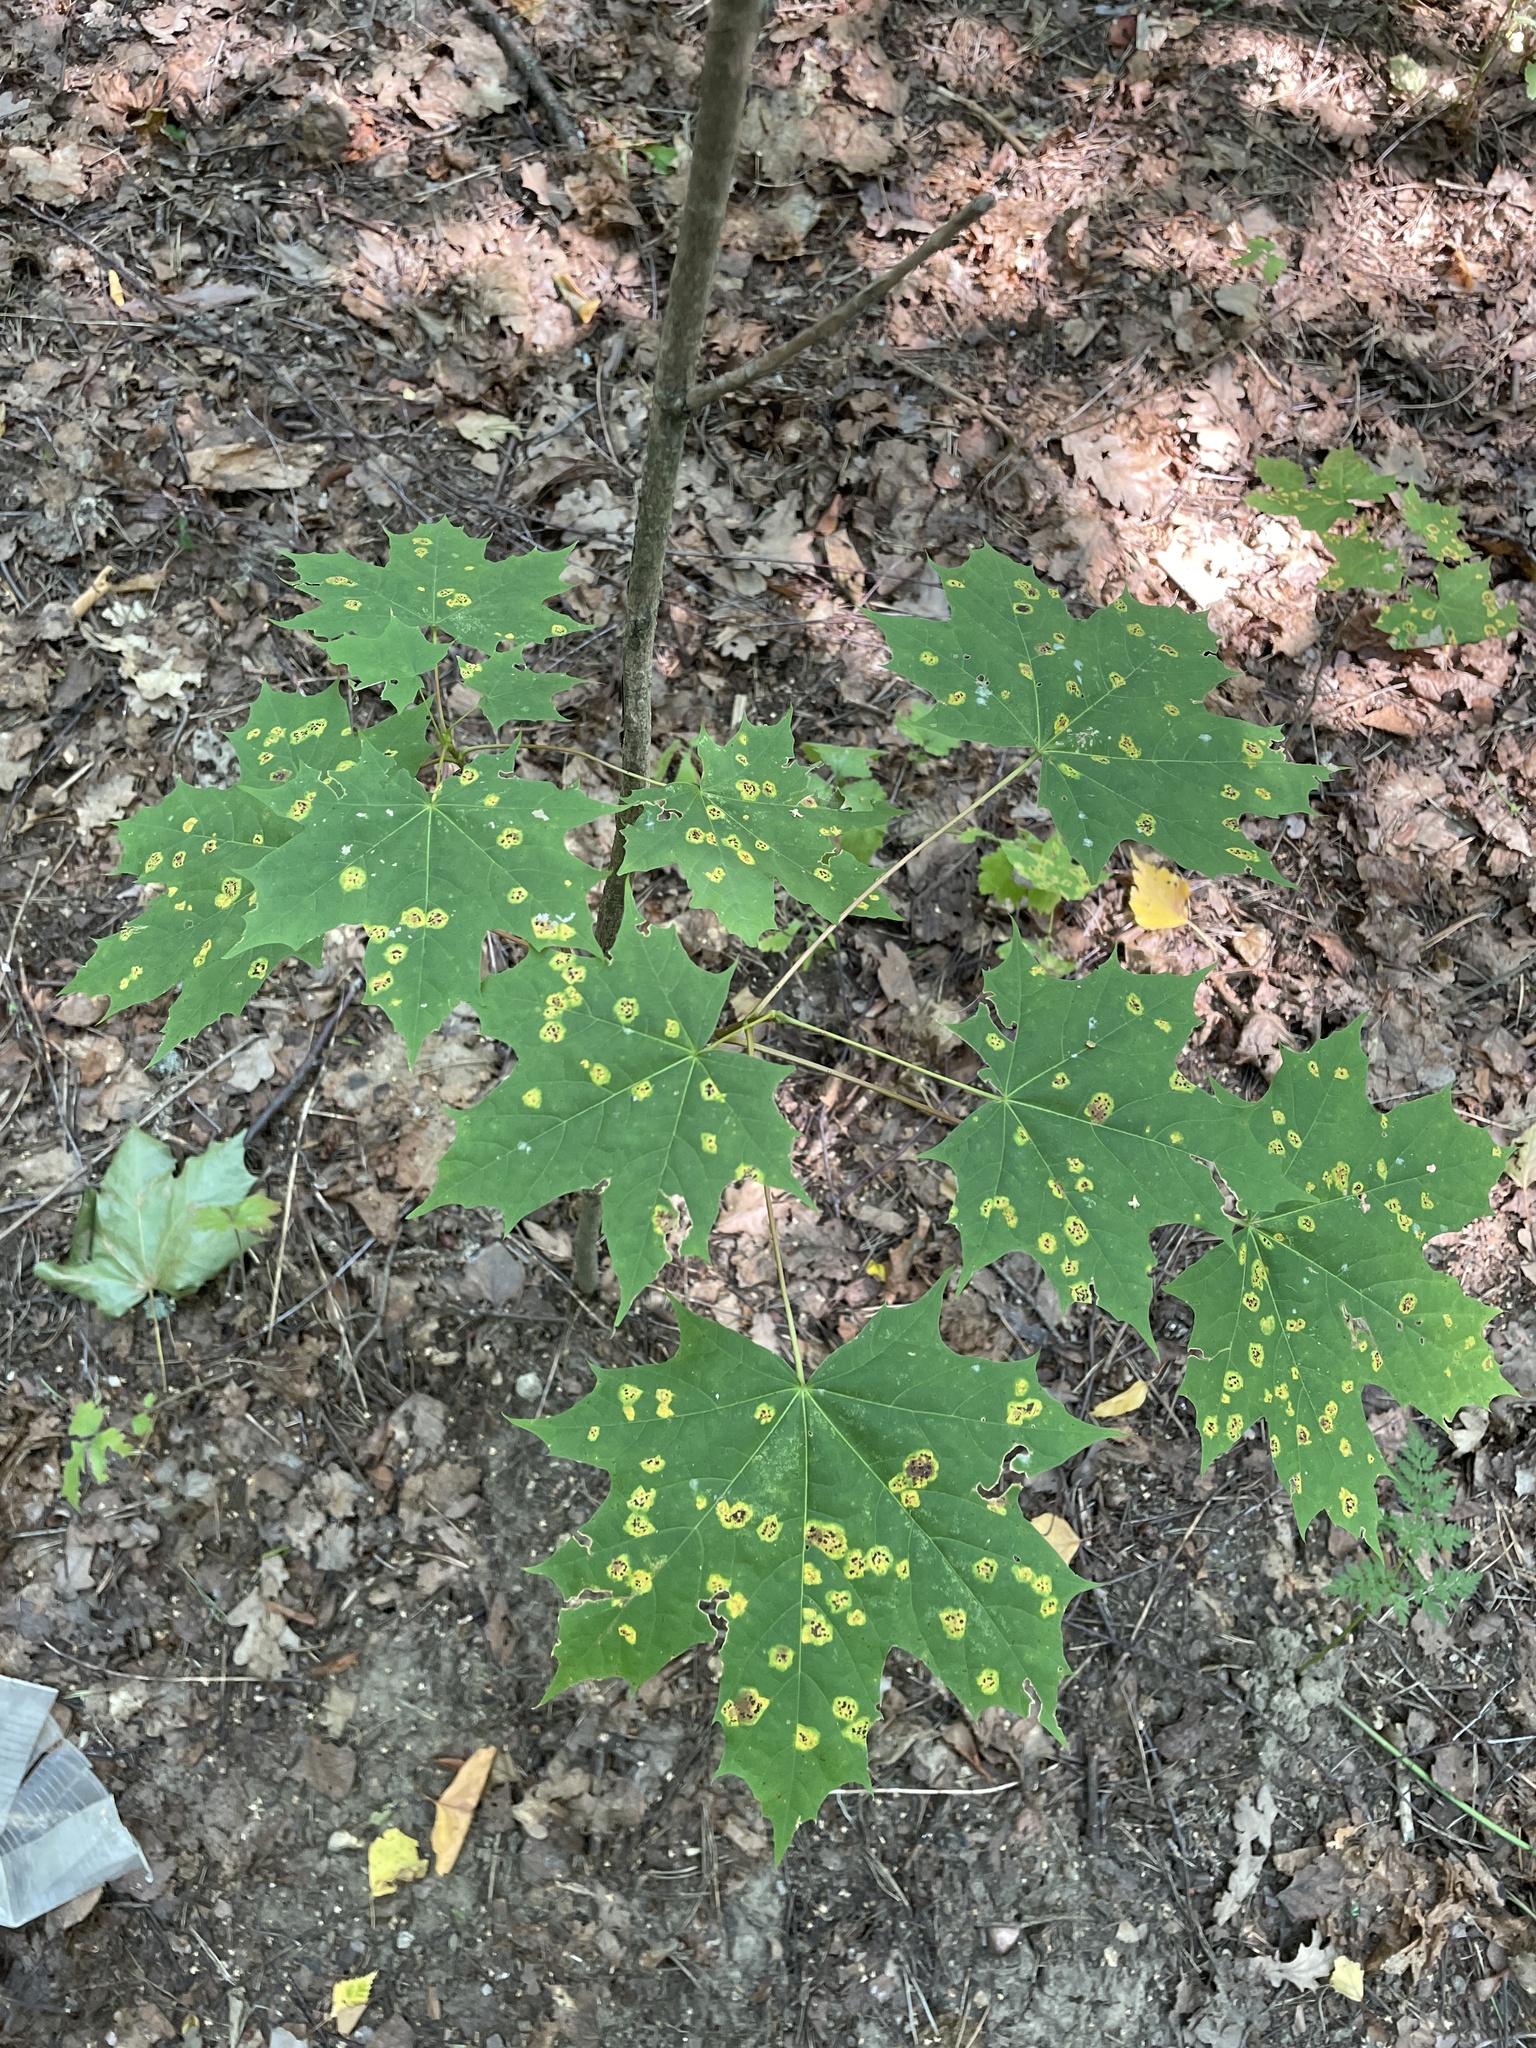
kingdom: Fungi
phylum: Ascomycota
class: Leotiomycetes
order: Rhytismatales
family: Rhytismataceae
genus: Rhytisma
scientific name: Rhytisma acerinum
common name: European tar spot
